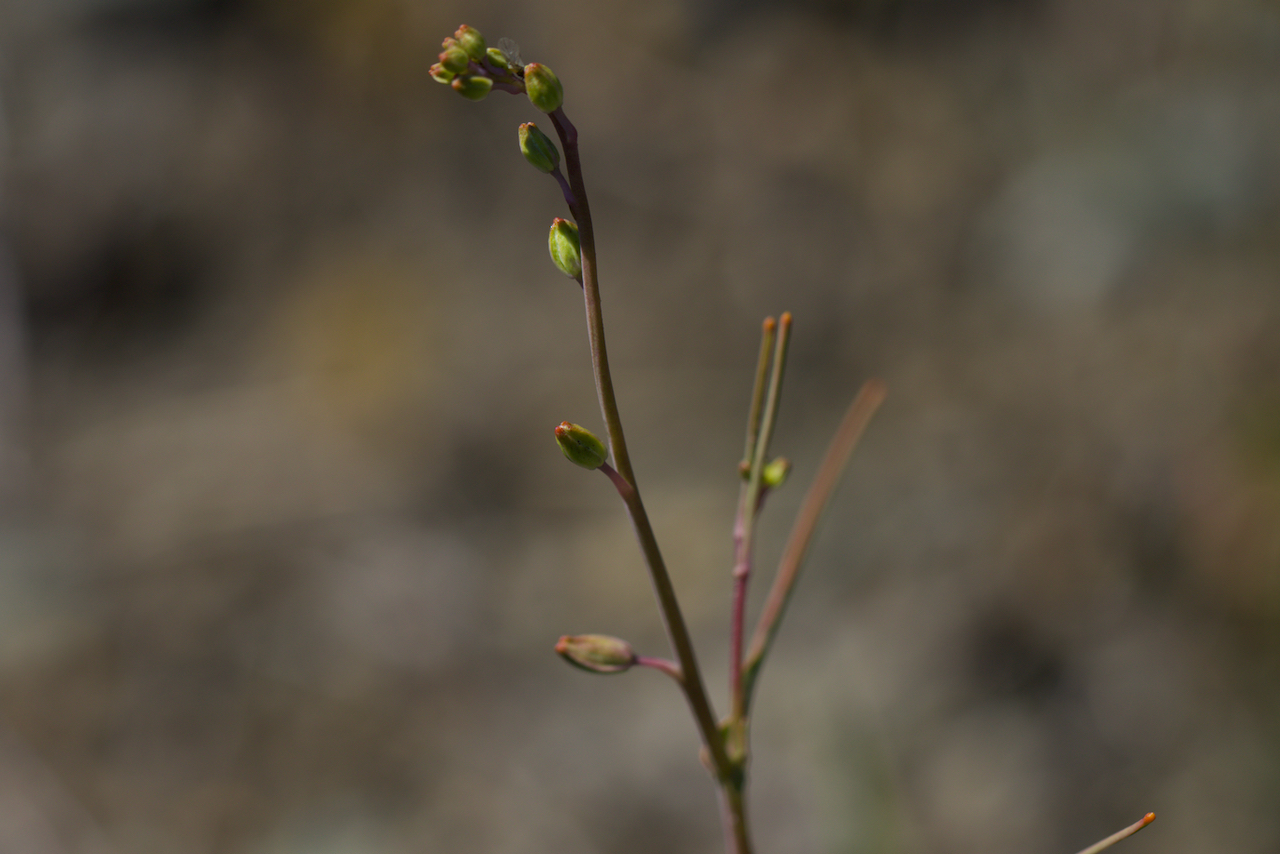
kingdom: Plantae
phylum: Tracheophyta
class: Magnoliopsida
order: Brassicales
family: Brassicaceae
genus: Streptanthus
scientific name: Streptanthus glandulosus
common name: Jewel-flower
